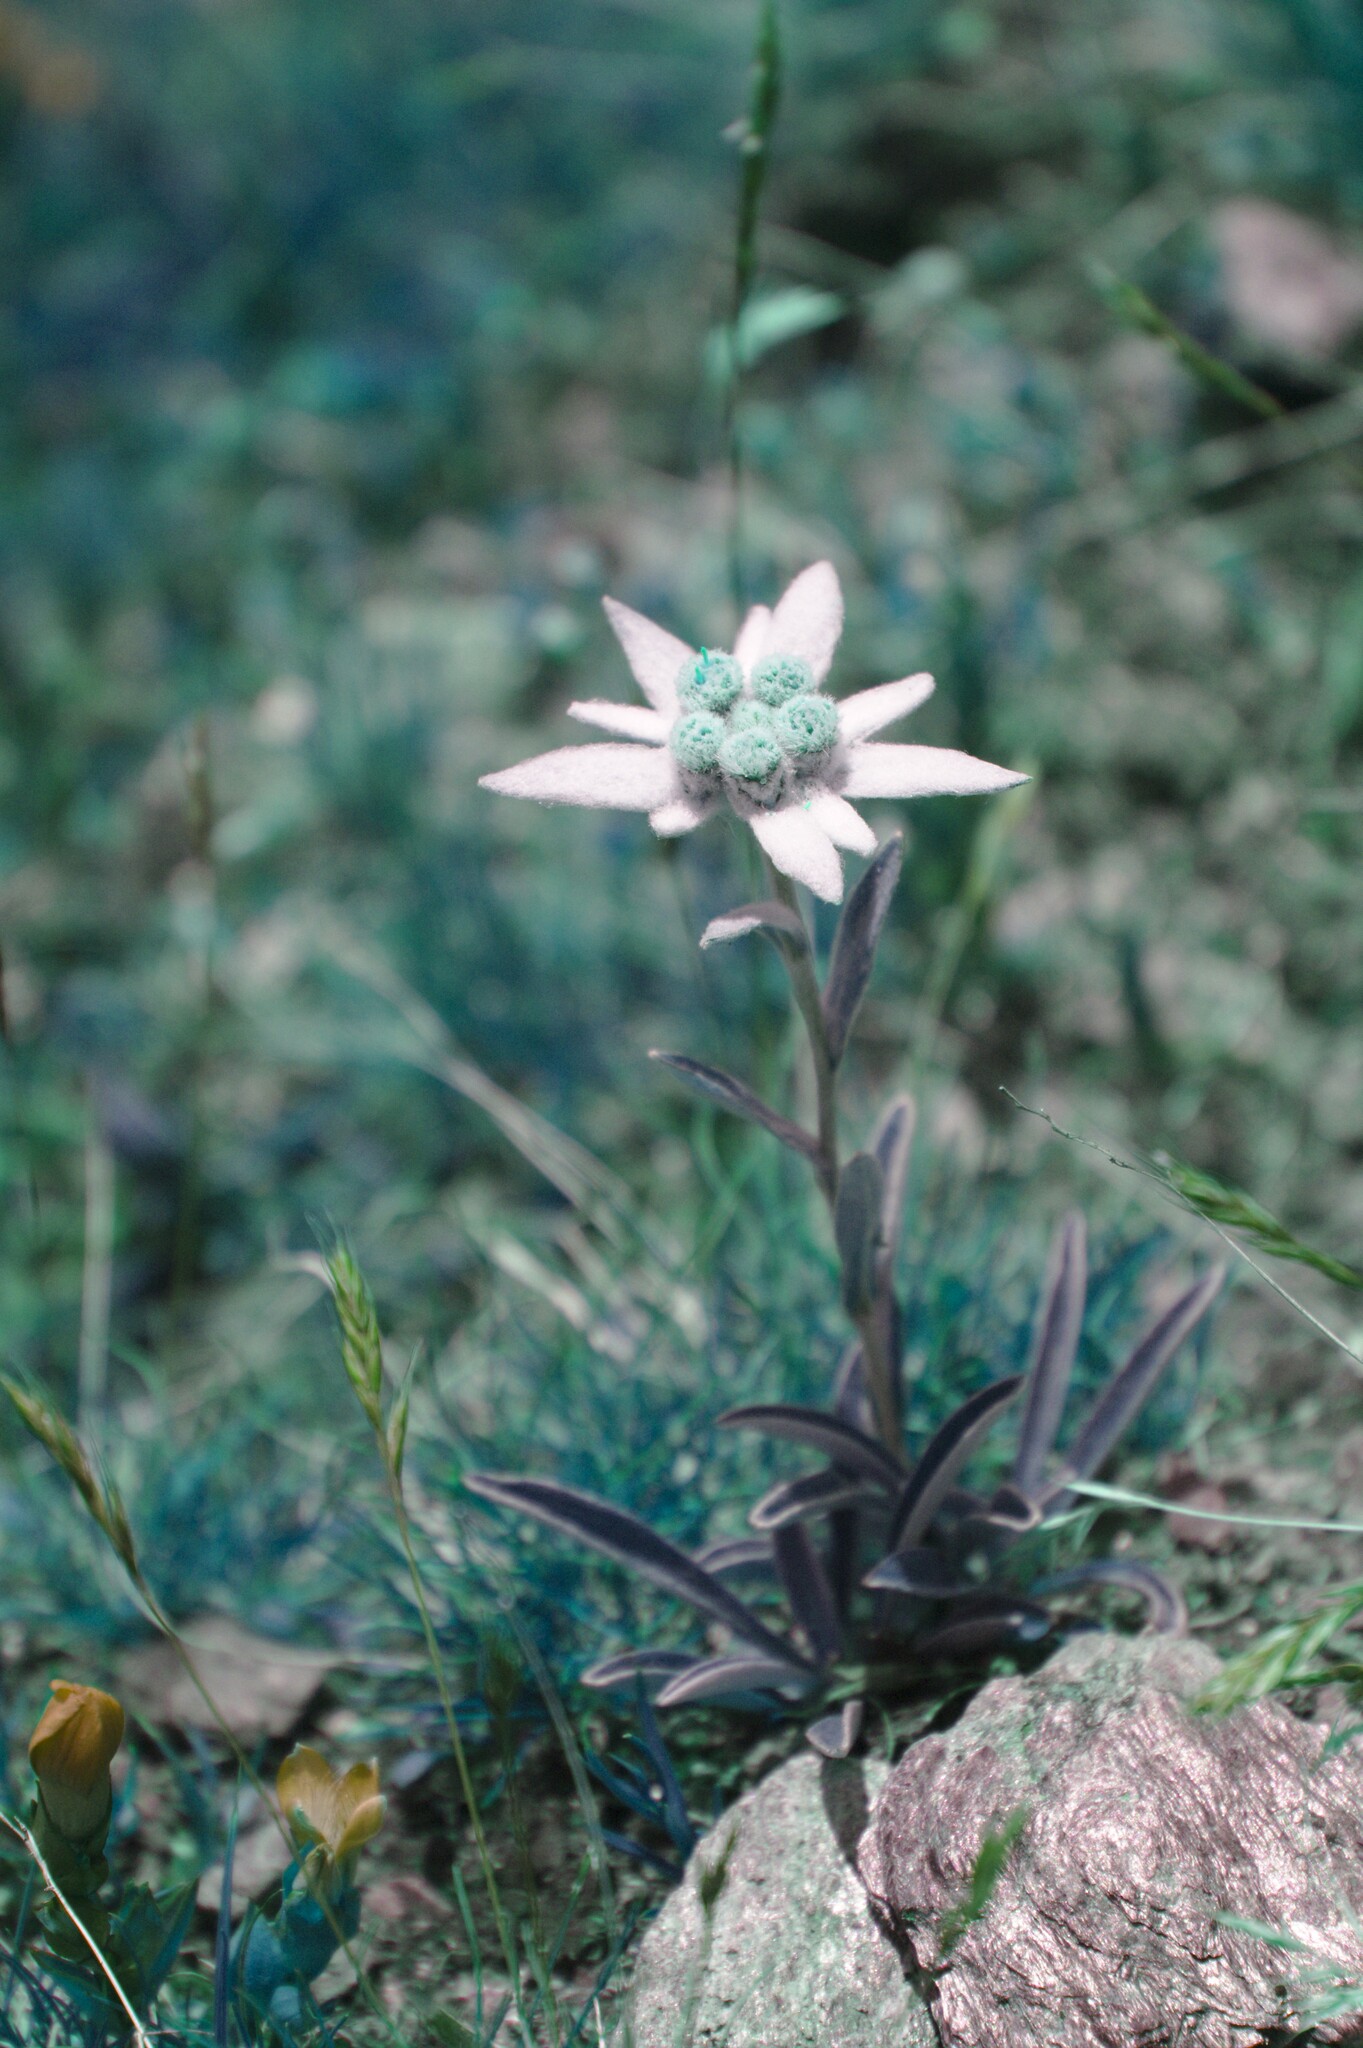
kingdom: Plantae
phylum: Tracheophyta
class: Magnoliopsida
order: Asterales
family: Asteraceae
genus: Leontopodium
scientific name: Leontopodium nivale
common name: Edelweiss
